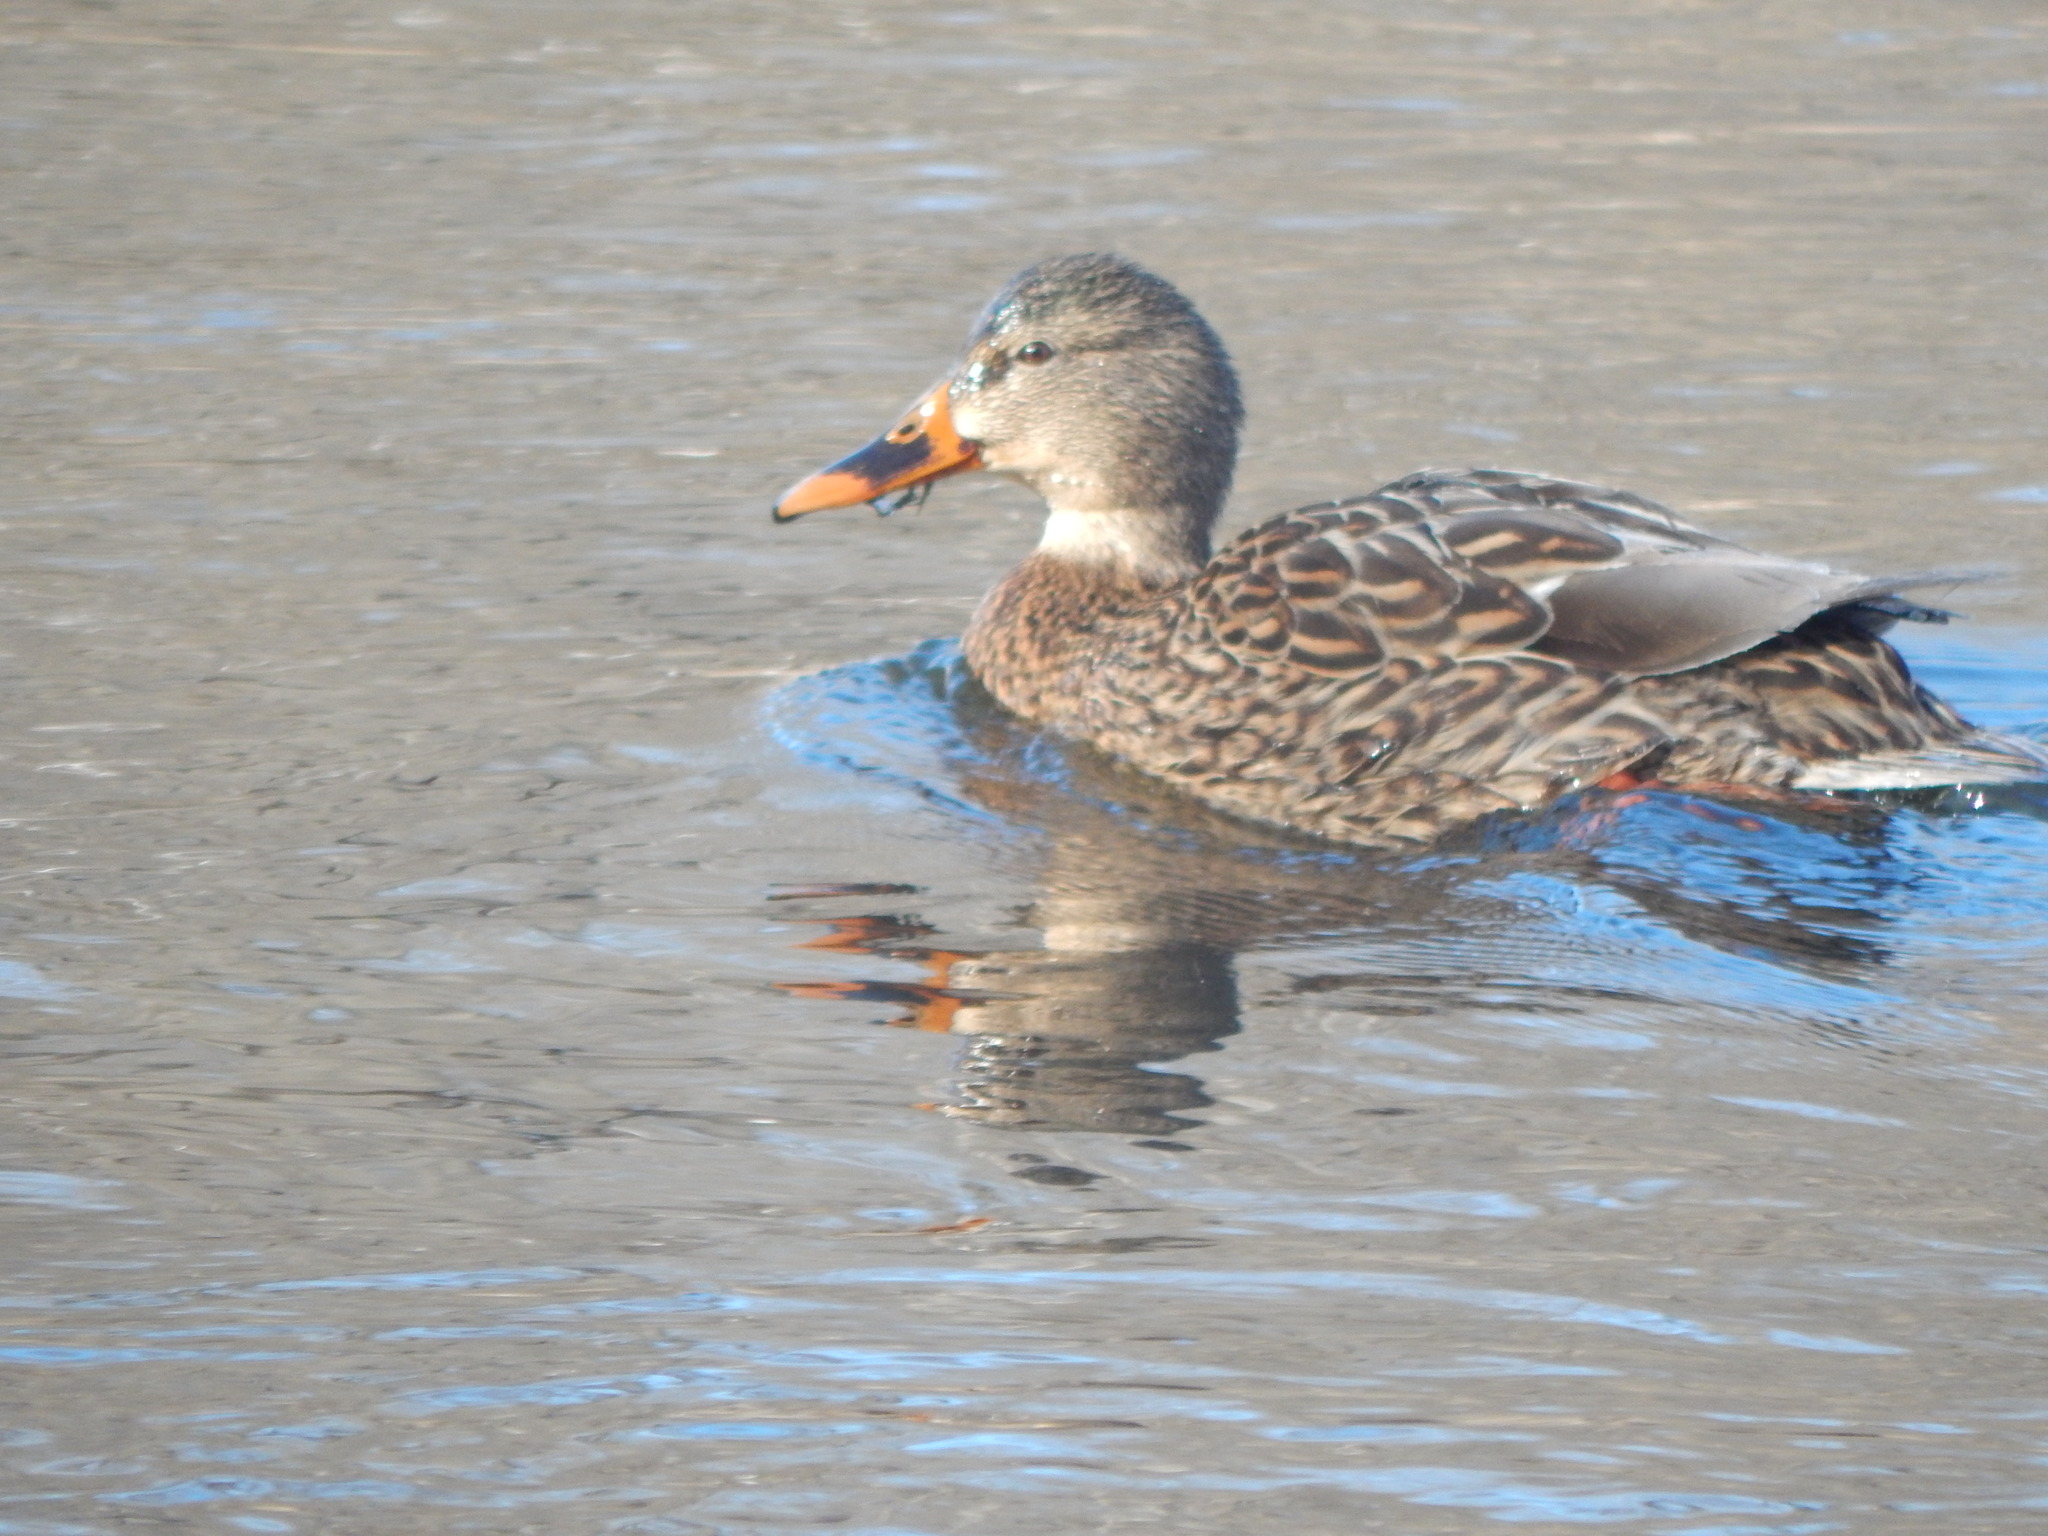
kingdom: Animalia
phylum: Chordata
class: Aves
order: Anseriformes
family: Anatidae
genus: Anas
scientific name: Anas platyrhynchos
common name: Mallard
